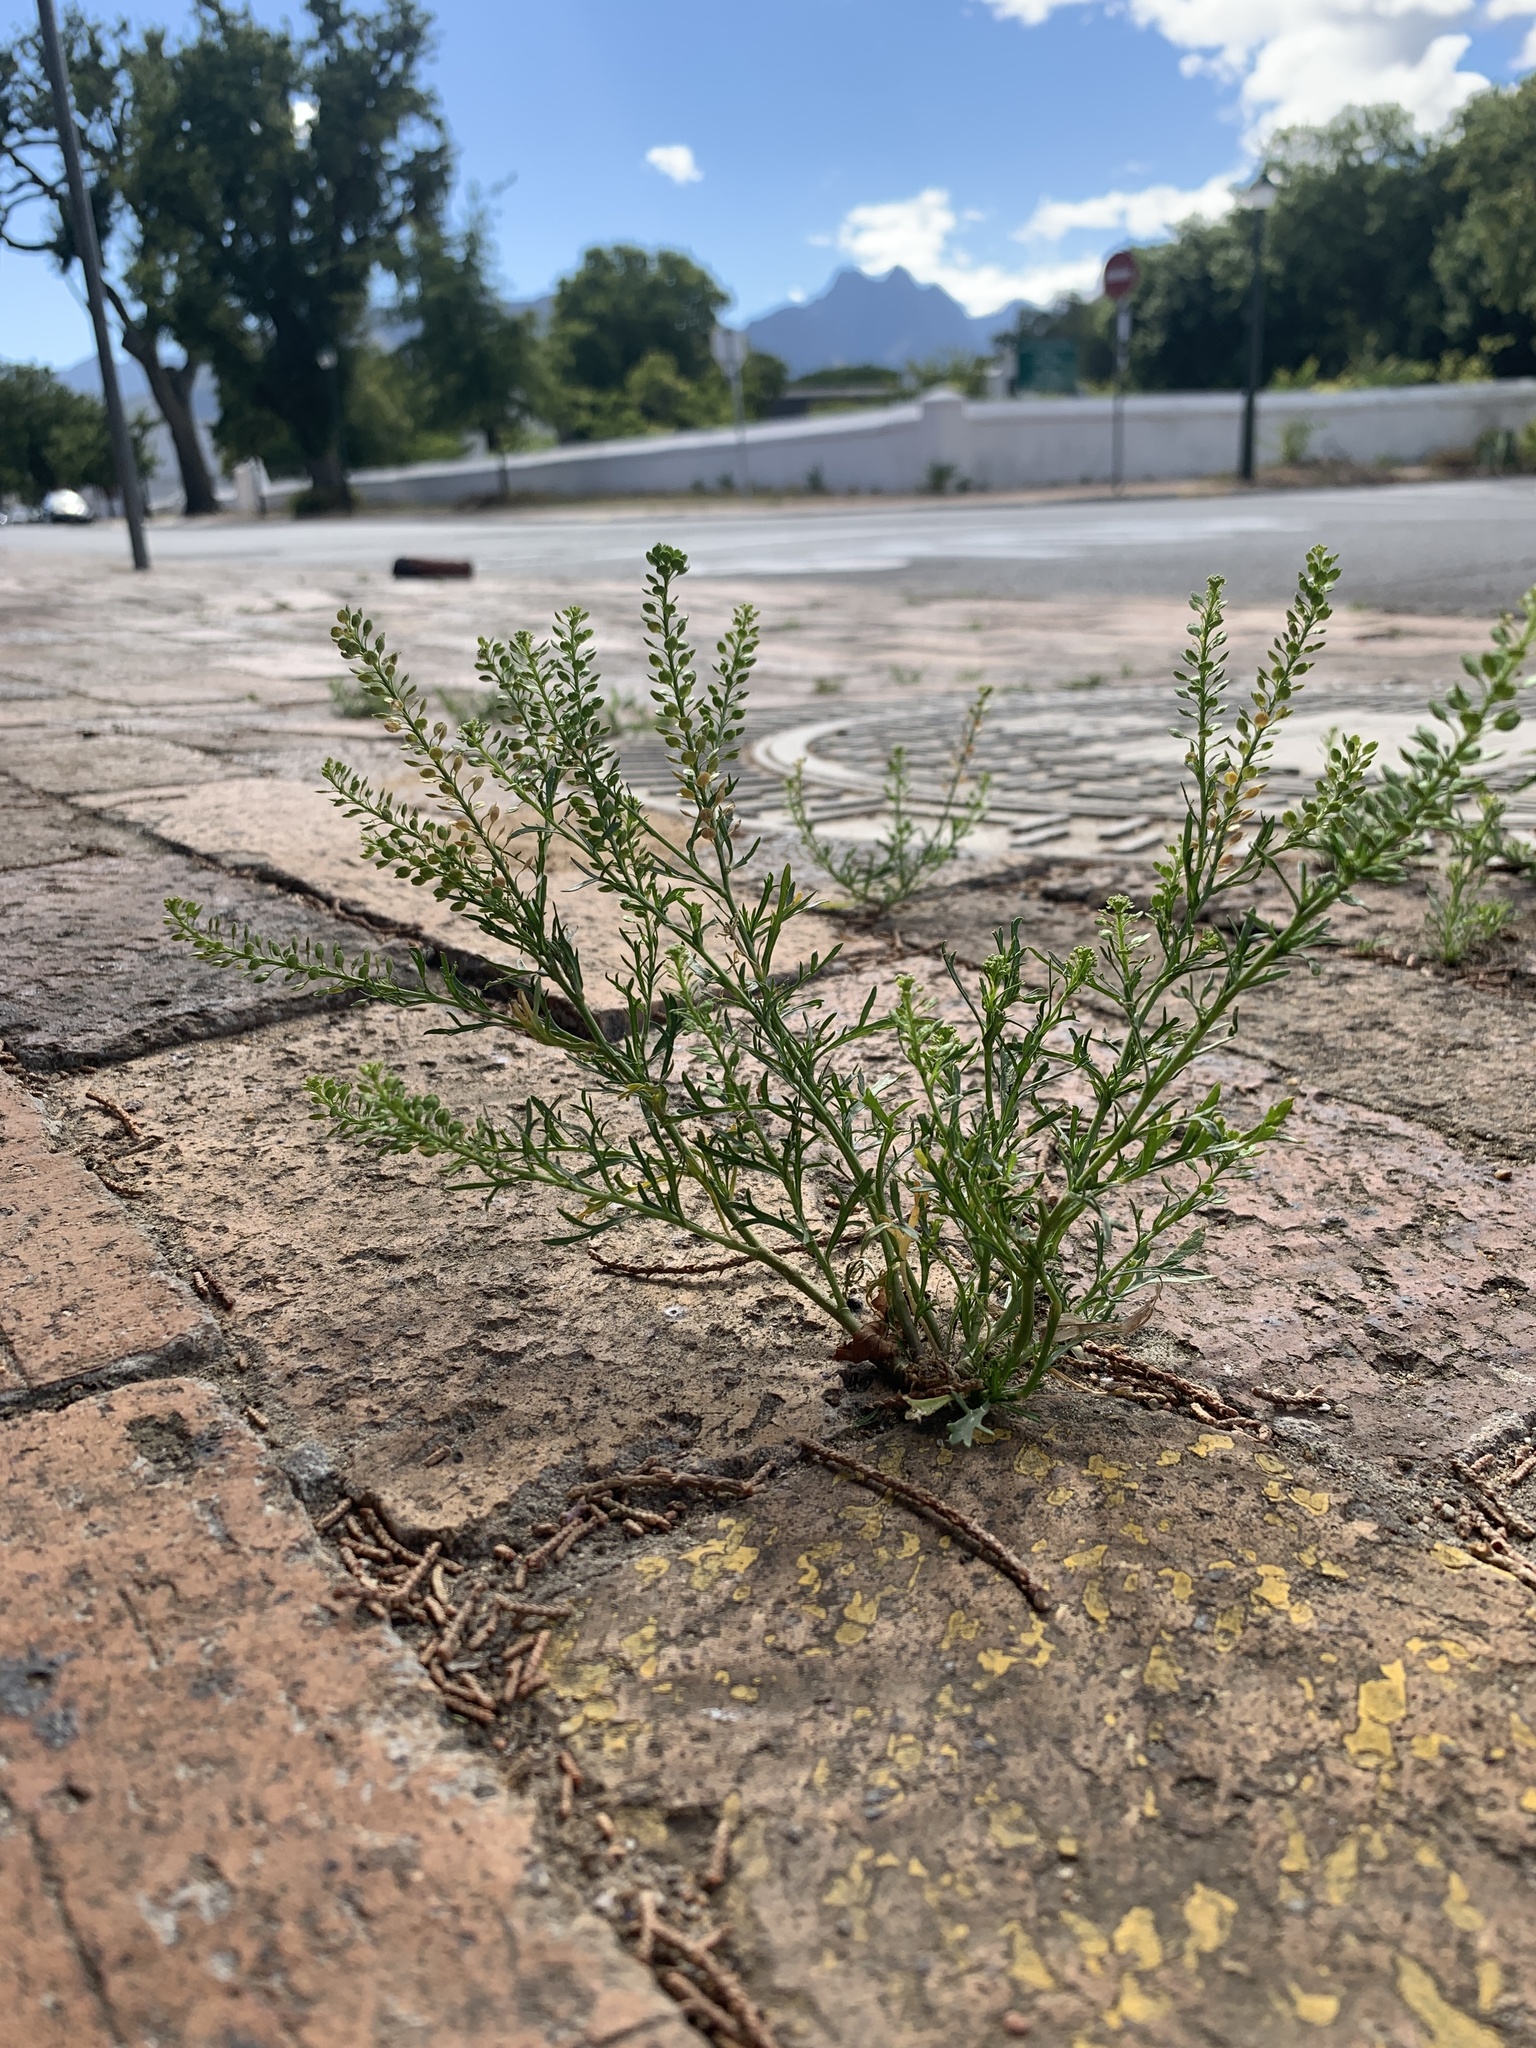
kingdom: Plantae
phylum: Tracheophyta
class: Magnoliopsida
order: Brassicales
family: Brassicaceae
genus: Lepidium
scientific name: Lepidium bonariense
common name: Argentine pepperwort
